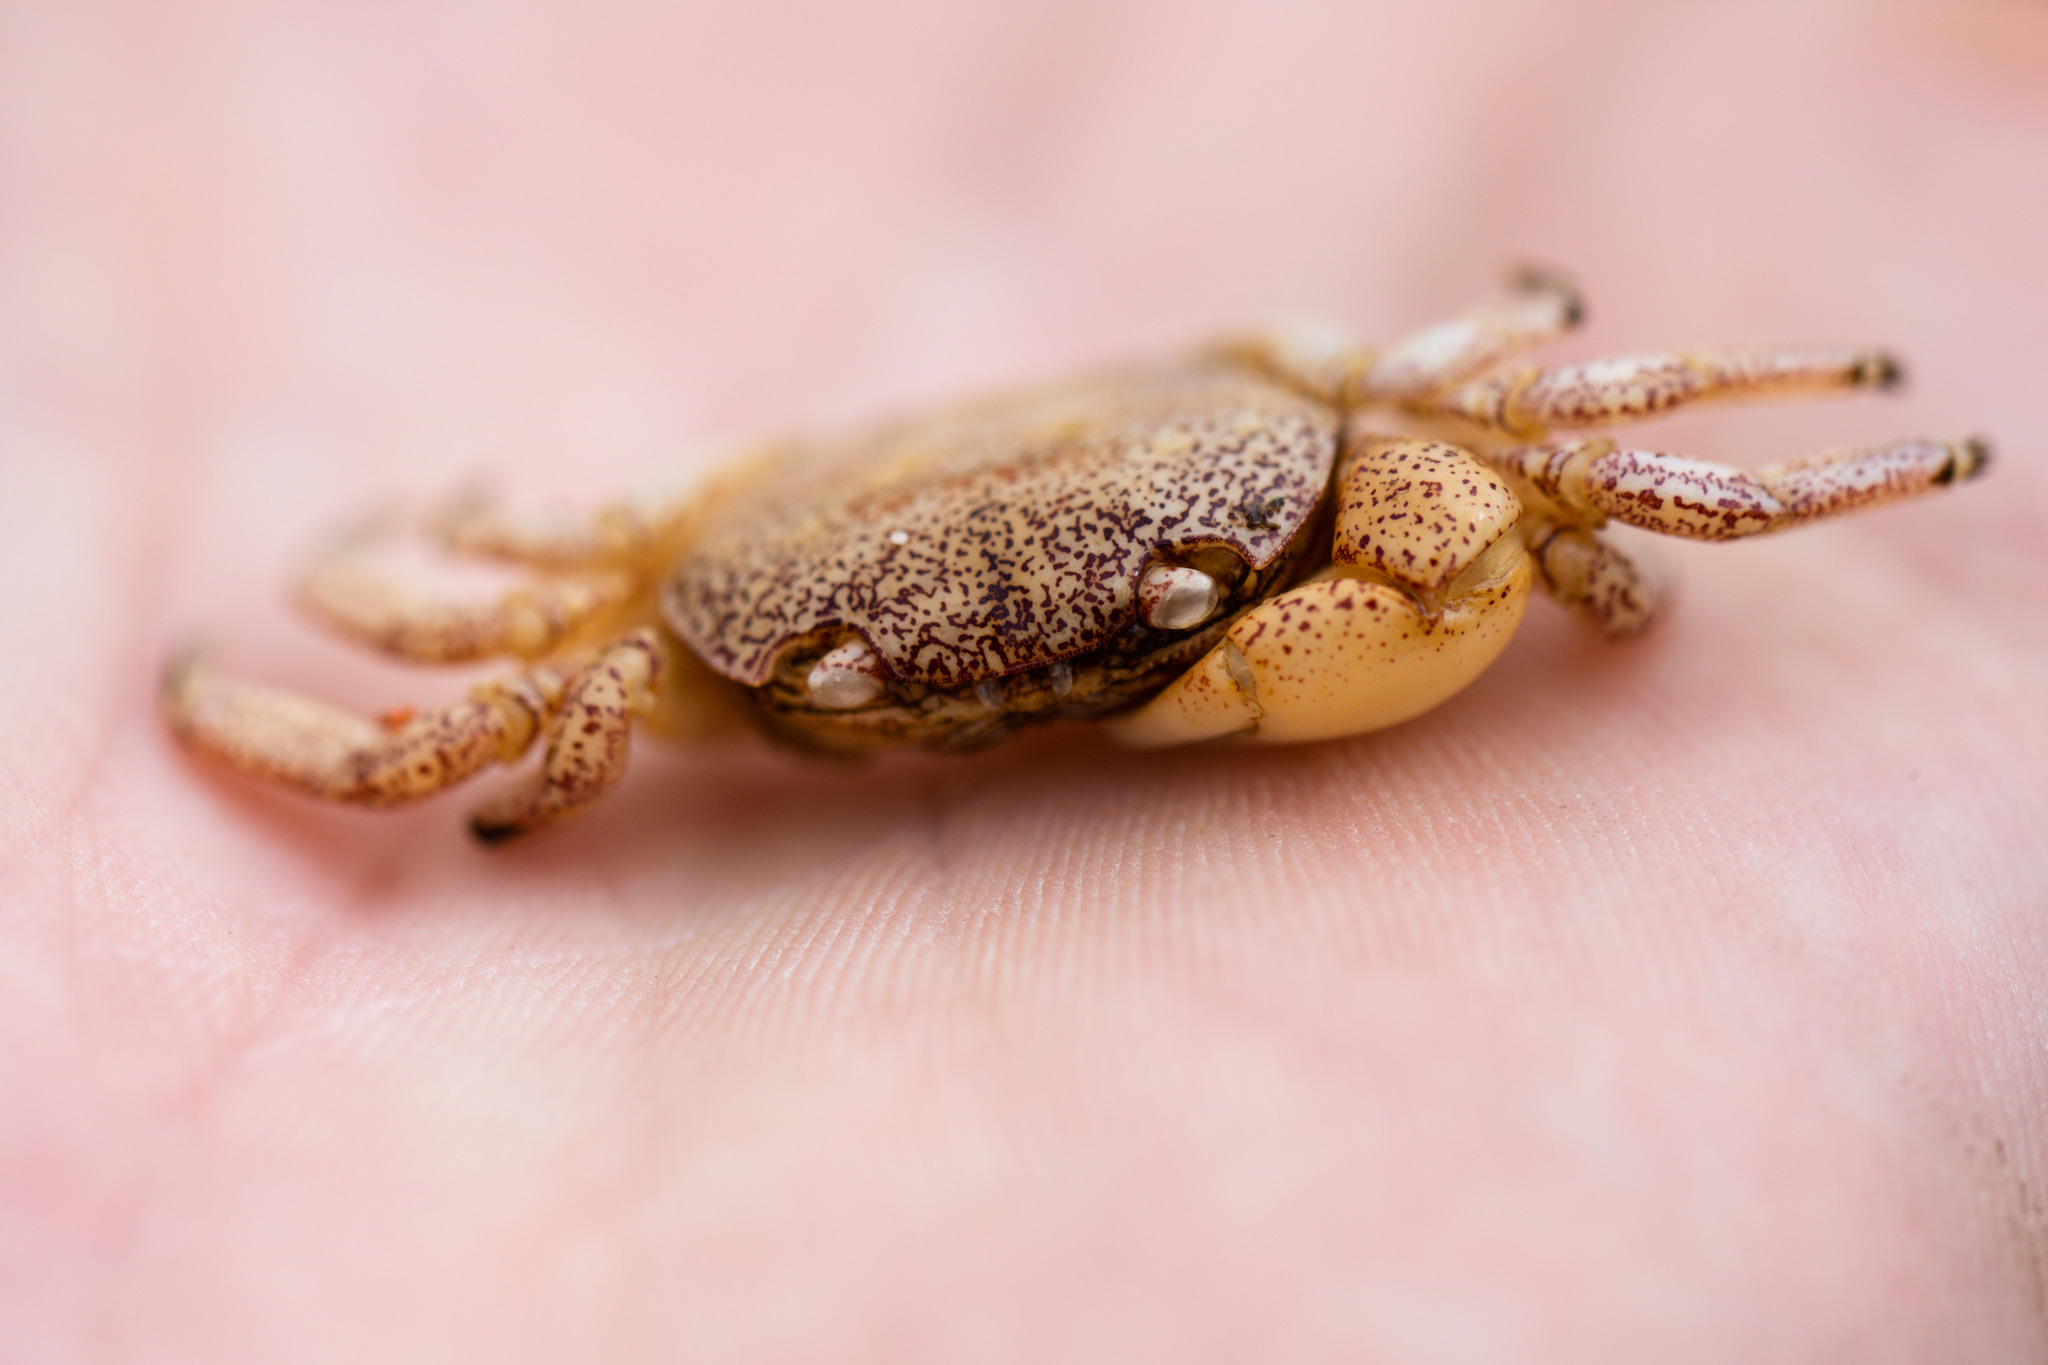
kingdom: Animalia
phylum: Arthropoda
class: Malacostraca
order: Decapoda
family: Varunidae
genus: Cyclograpsus
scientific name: Cyclograpsus lavauxi
